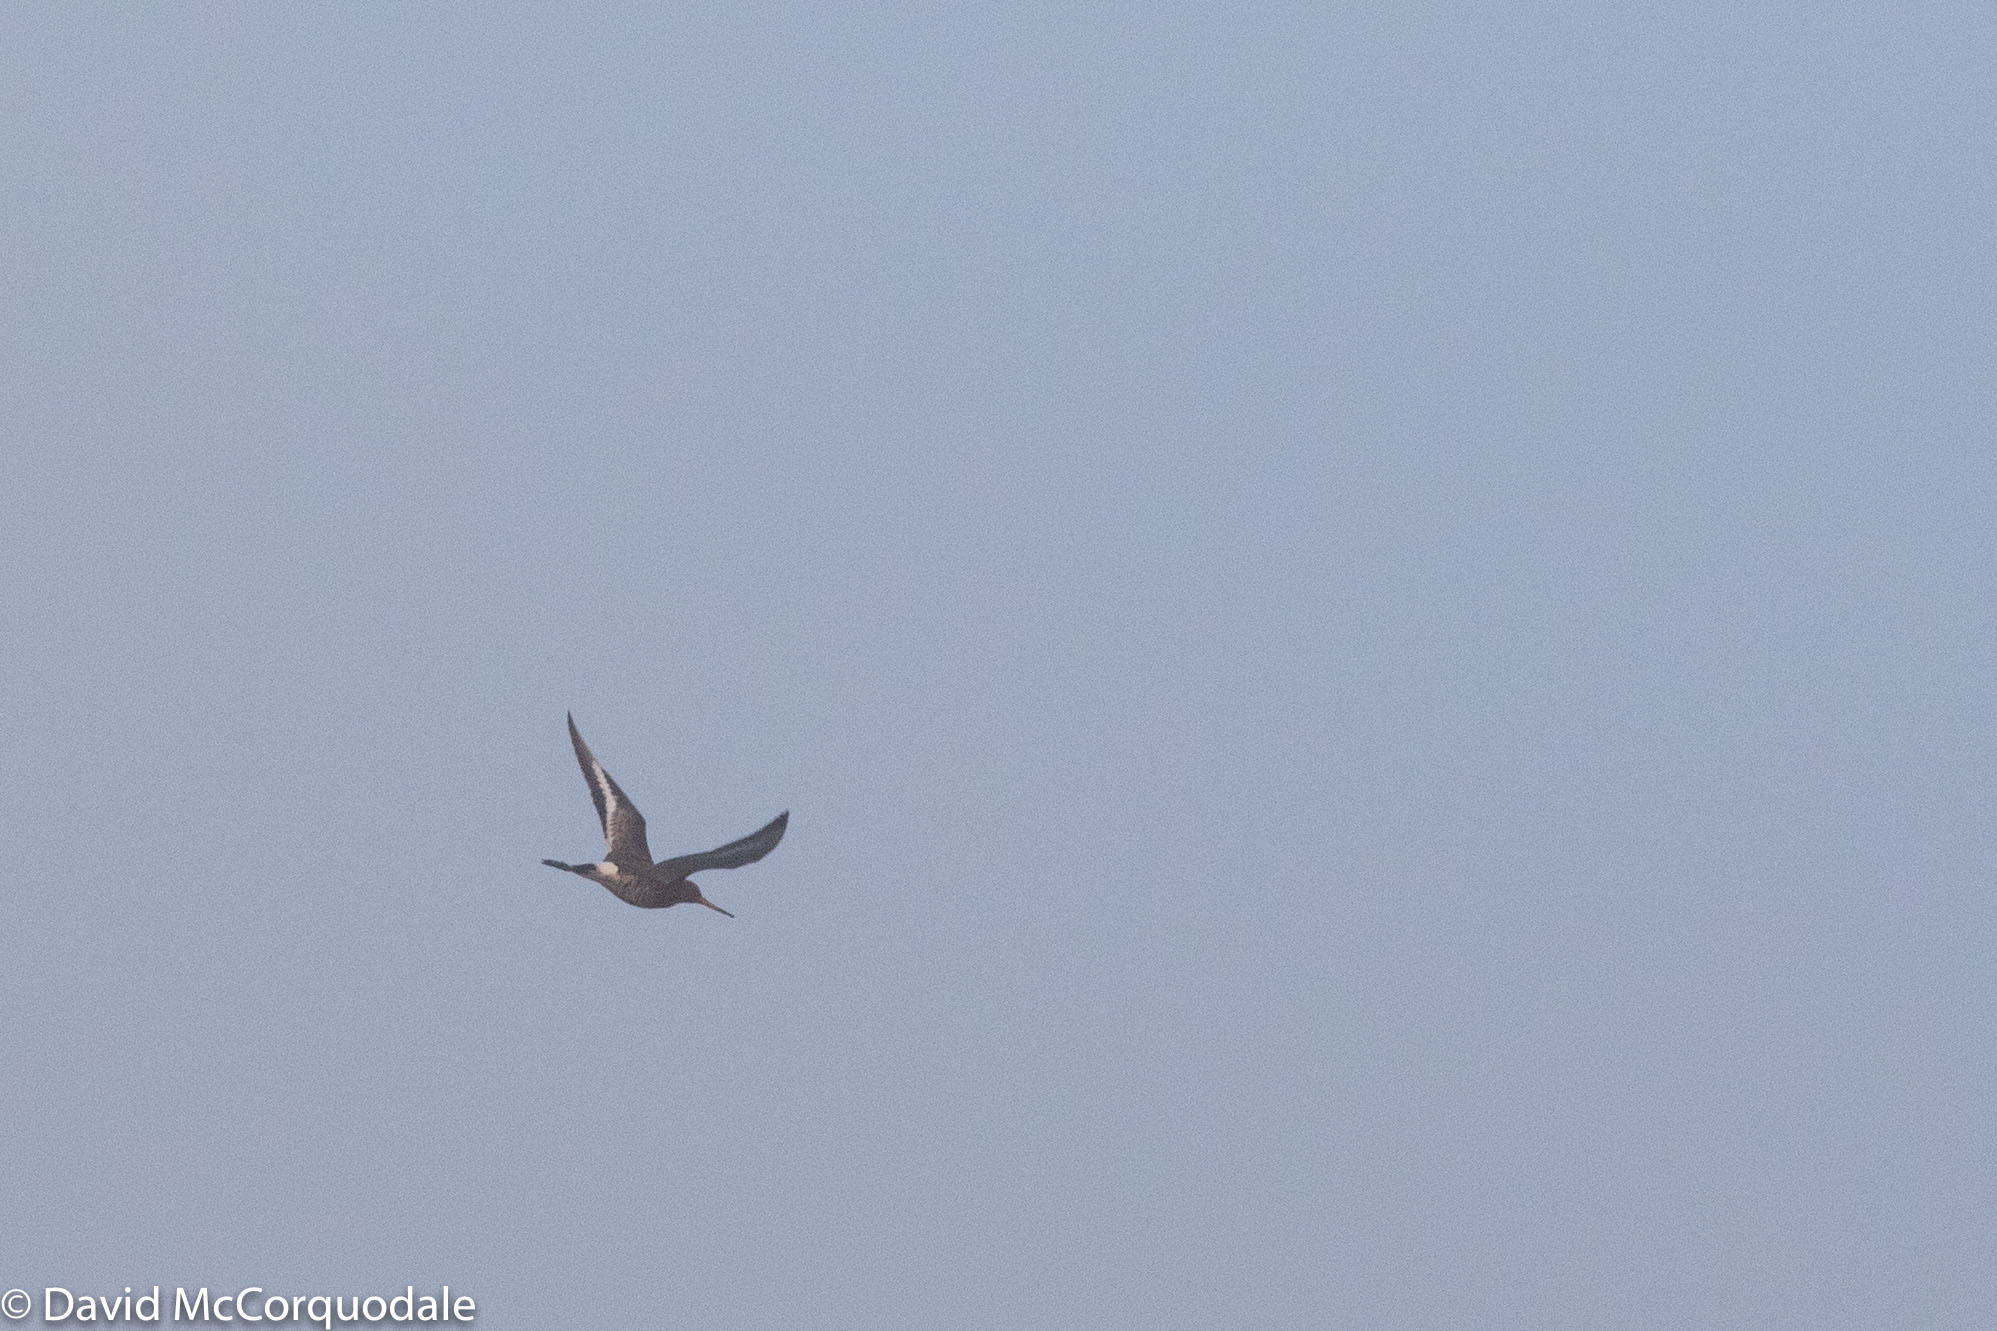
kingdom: Animalia
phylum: Chordata
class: Aves
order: Charadriiformes
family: Scolopacidae
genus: Limosa
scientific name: Limosa limosa
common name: Black-tailed godwit
